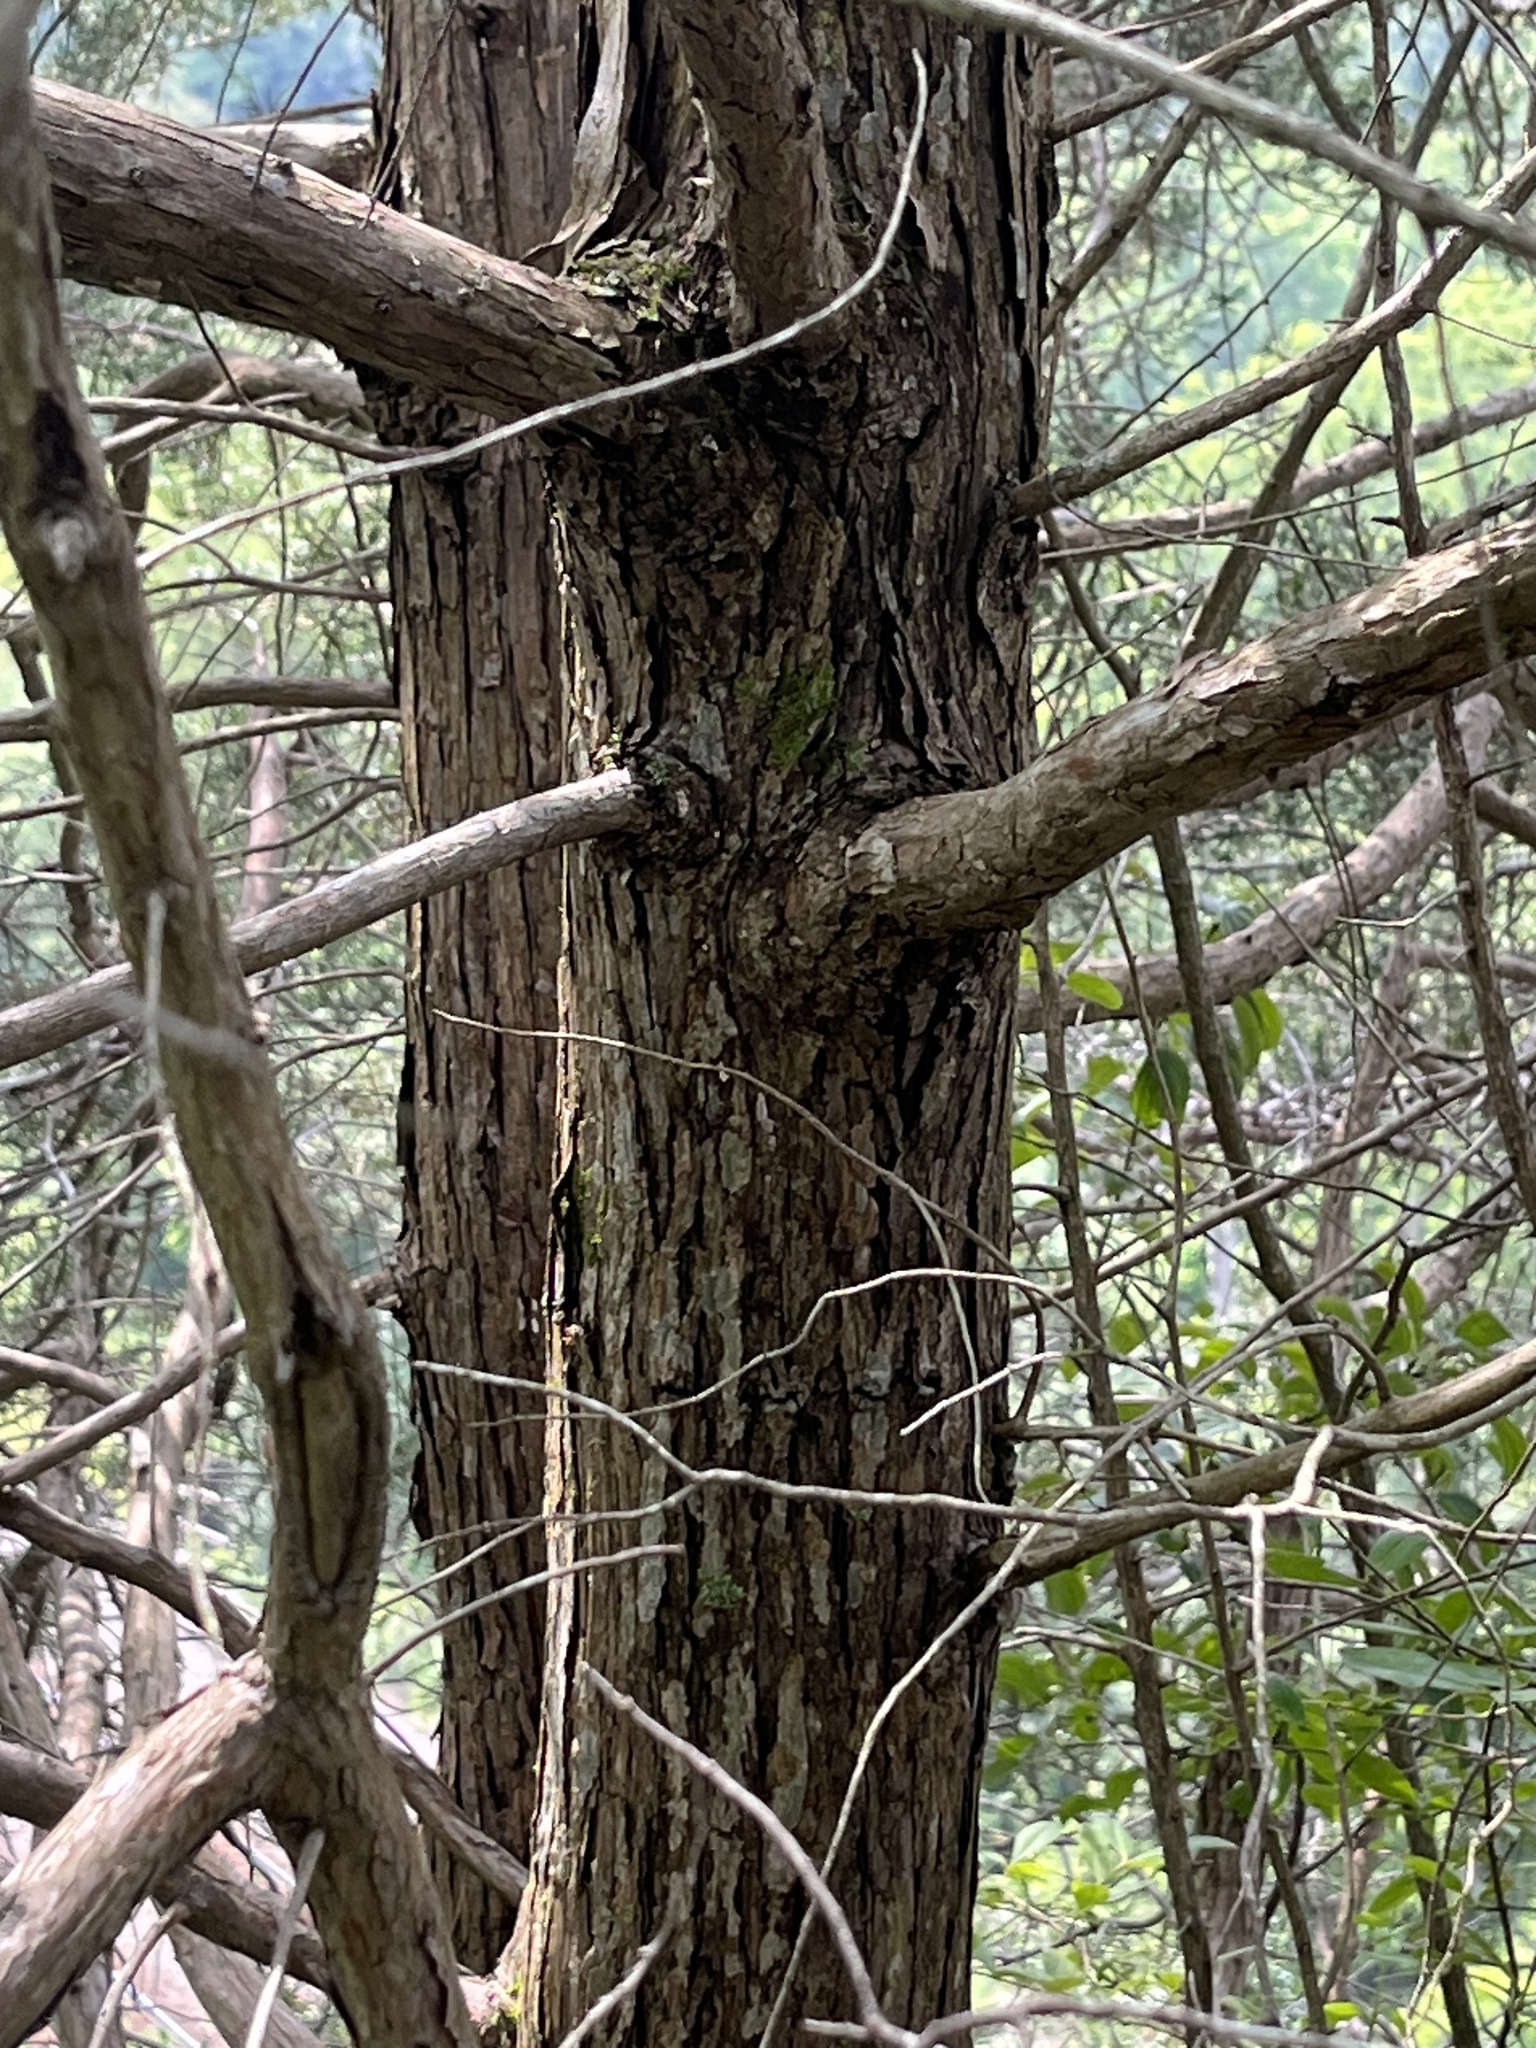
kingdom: Plantae
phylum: Tracheophyta
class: Pinopsida
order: Pinales
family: Cupressaceae
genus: Juniperus
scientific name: Juniperus virginiana
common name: Red juniper
